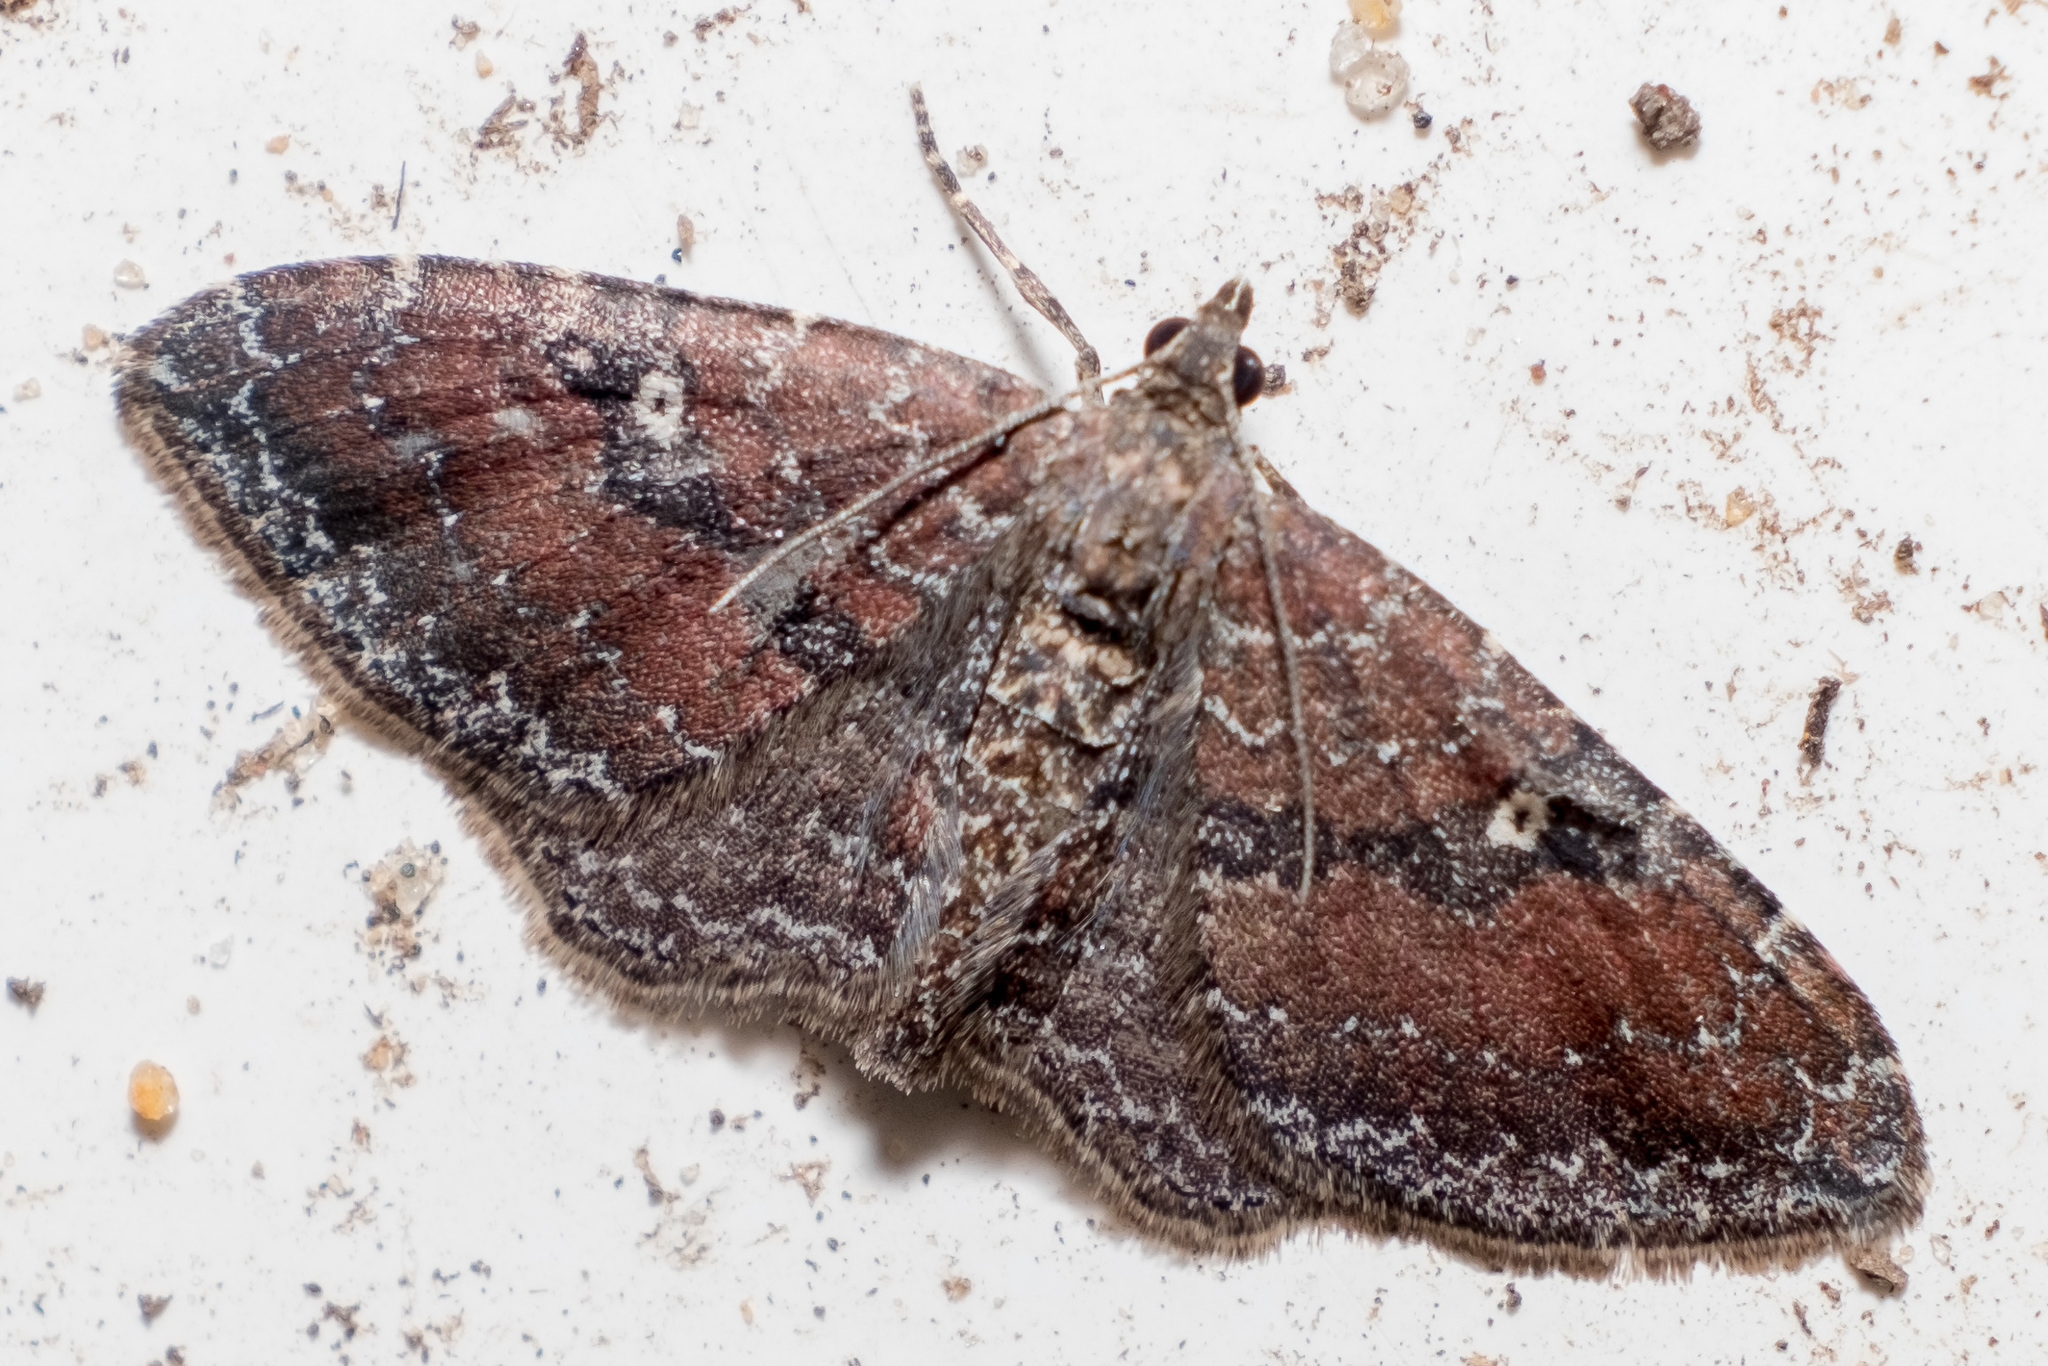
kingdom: Animalia
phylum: Arthropoda
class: Insecta
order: Lepidoptera
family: Geometridae
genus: Orthonama
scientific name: Orthonama obstipata
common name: The gem
